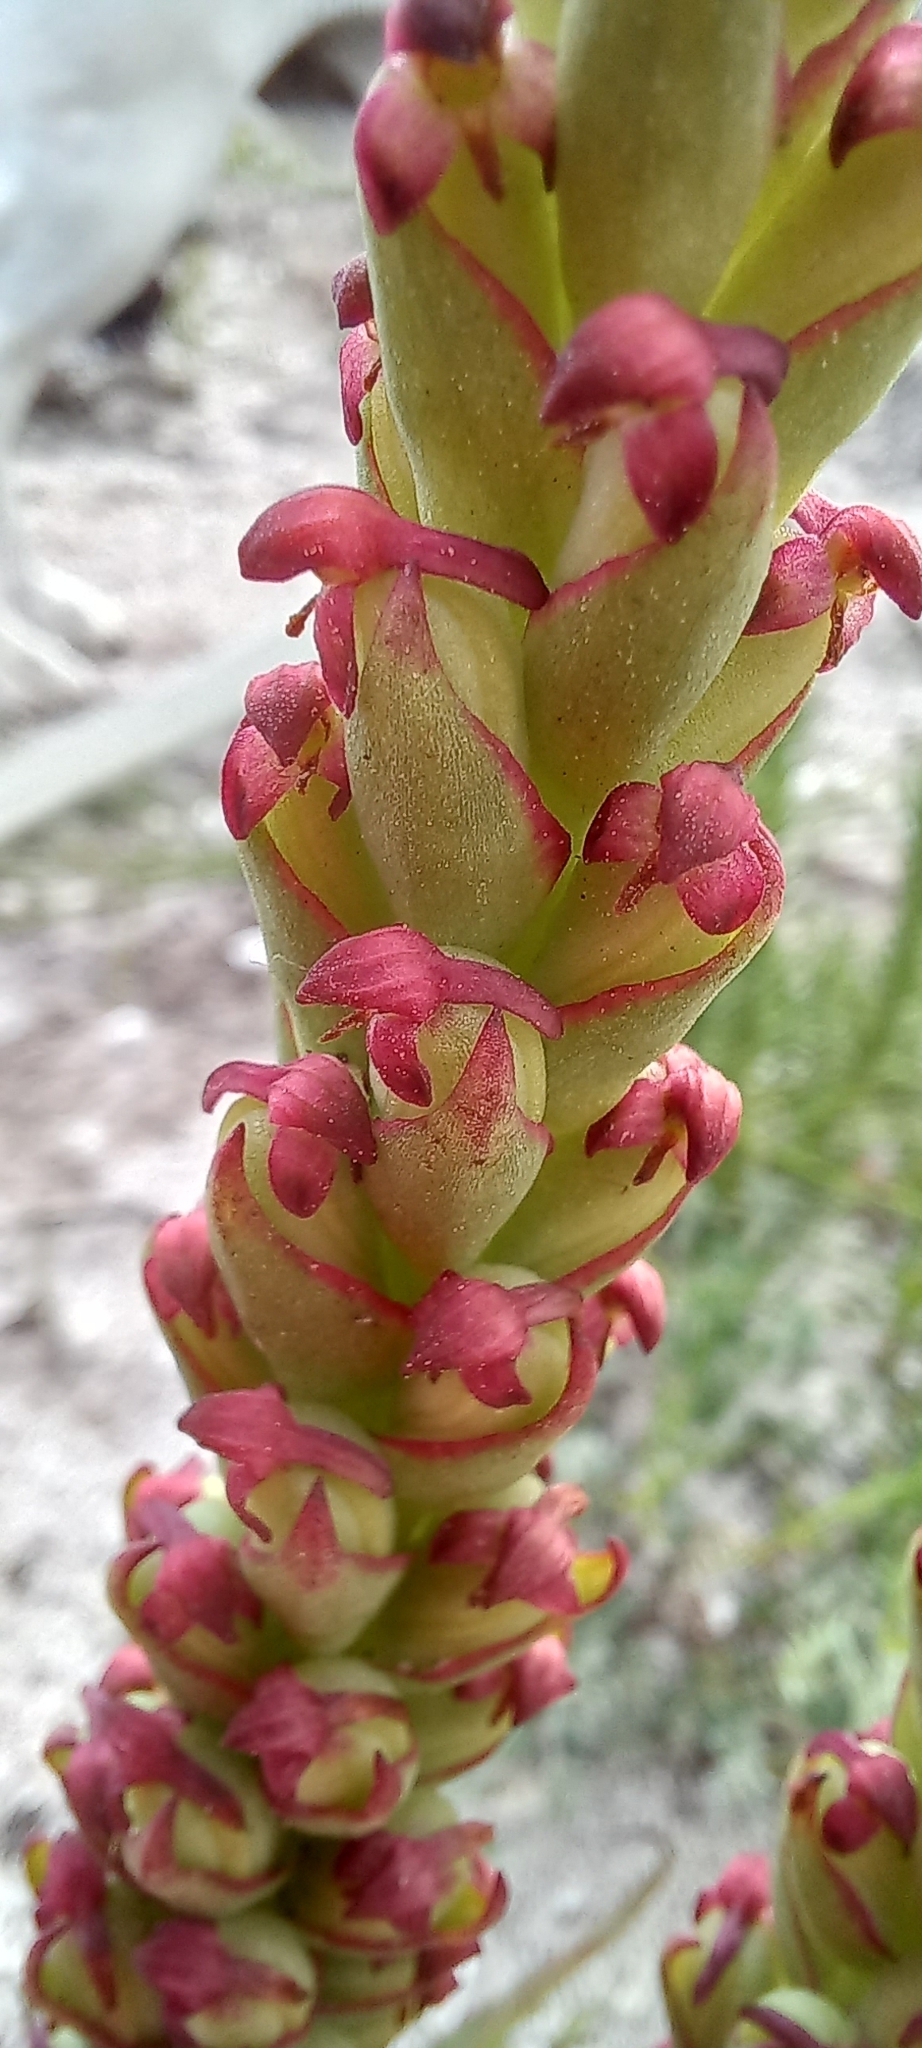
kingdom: Plantae
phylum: Tracheophyta
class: Liliopsida
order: Asparagales
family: Orchidaceae
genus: Disa
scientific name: Disa bracteata
